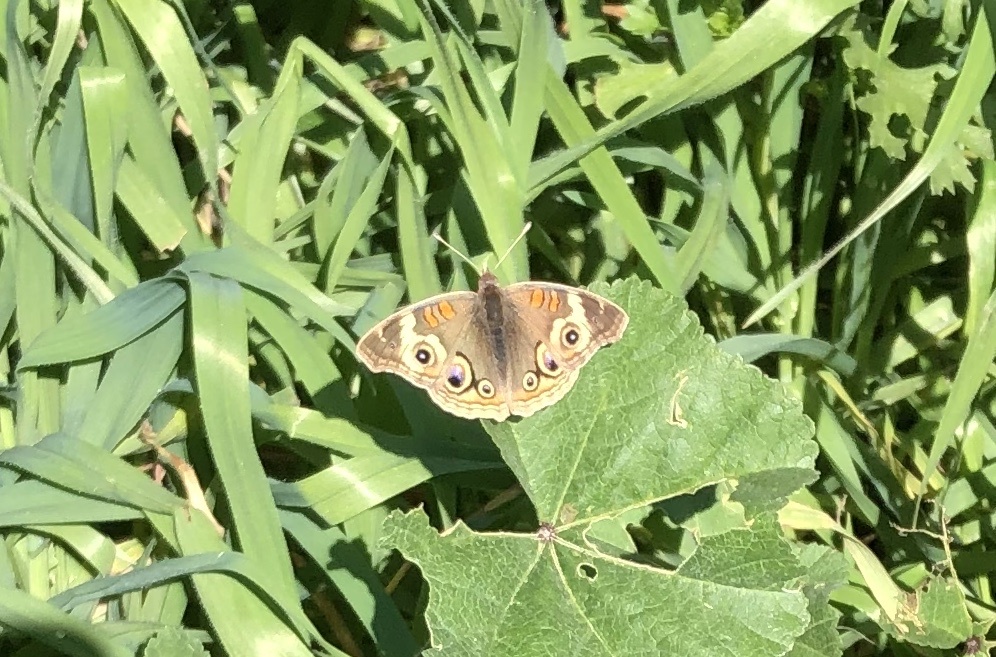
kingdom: Animalia
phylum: Arthropoda
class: Insecta
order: Lepidoptera
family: Nymphalidae
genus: Junonia
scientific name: Junonia grisea
